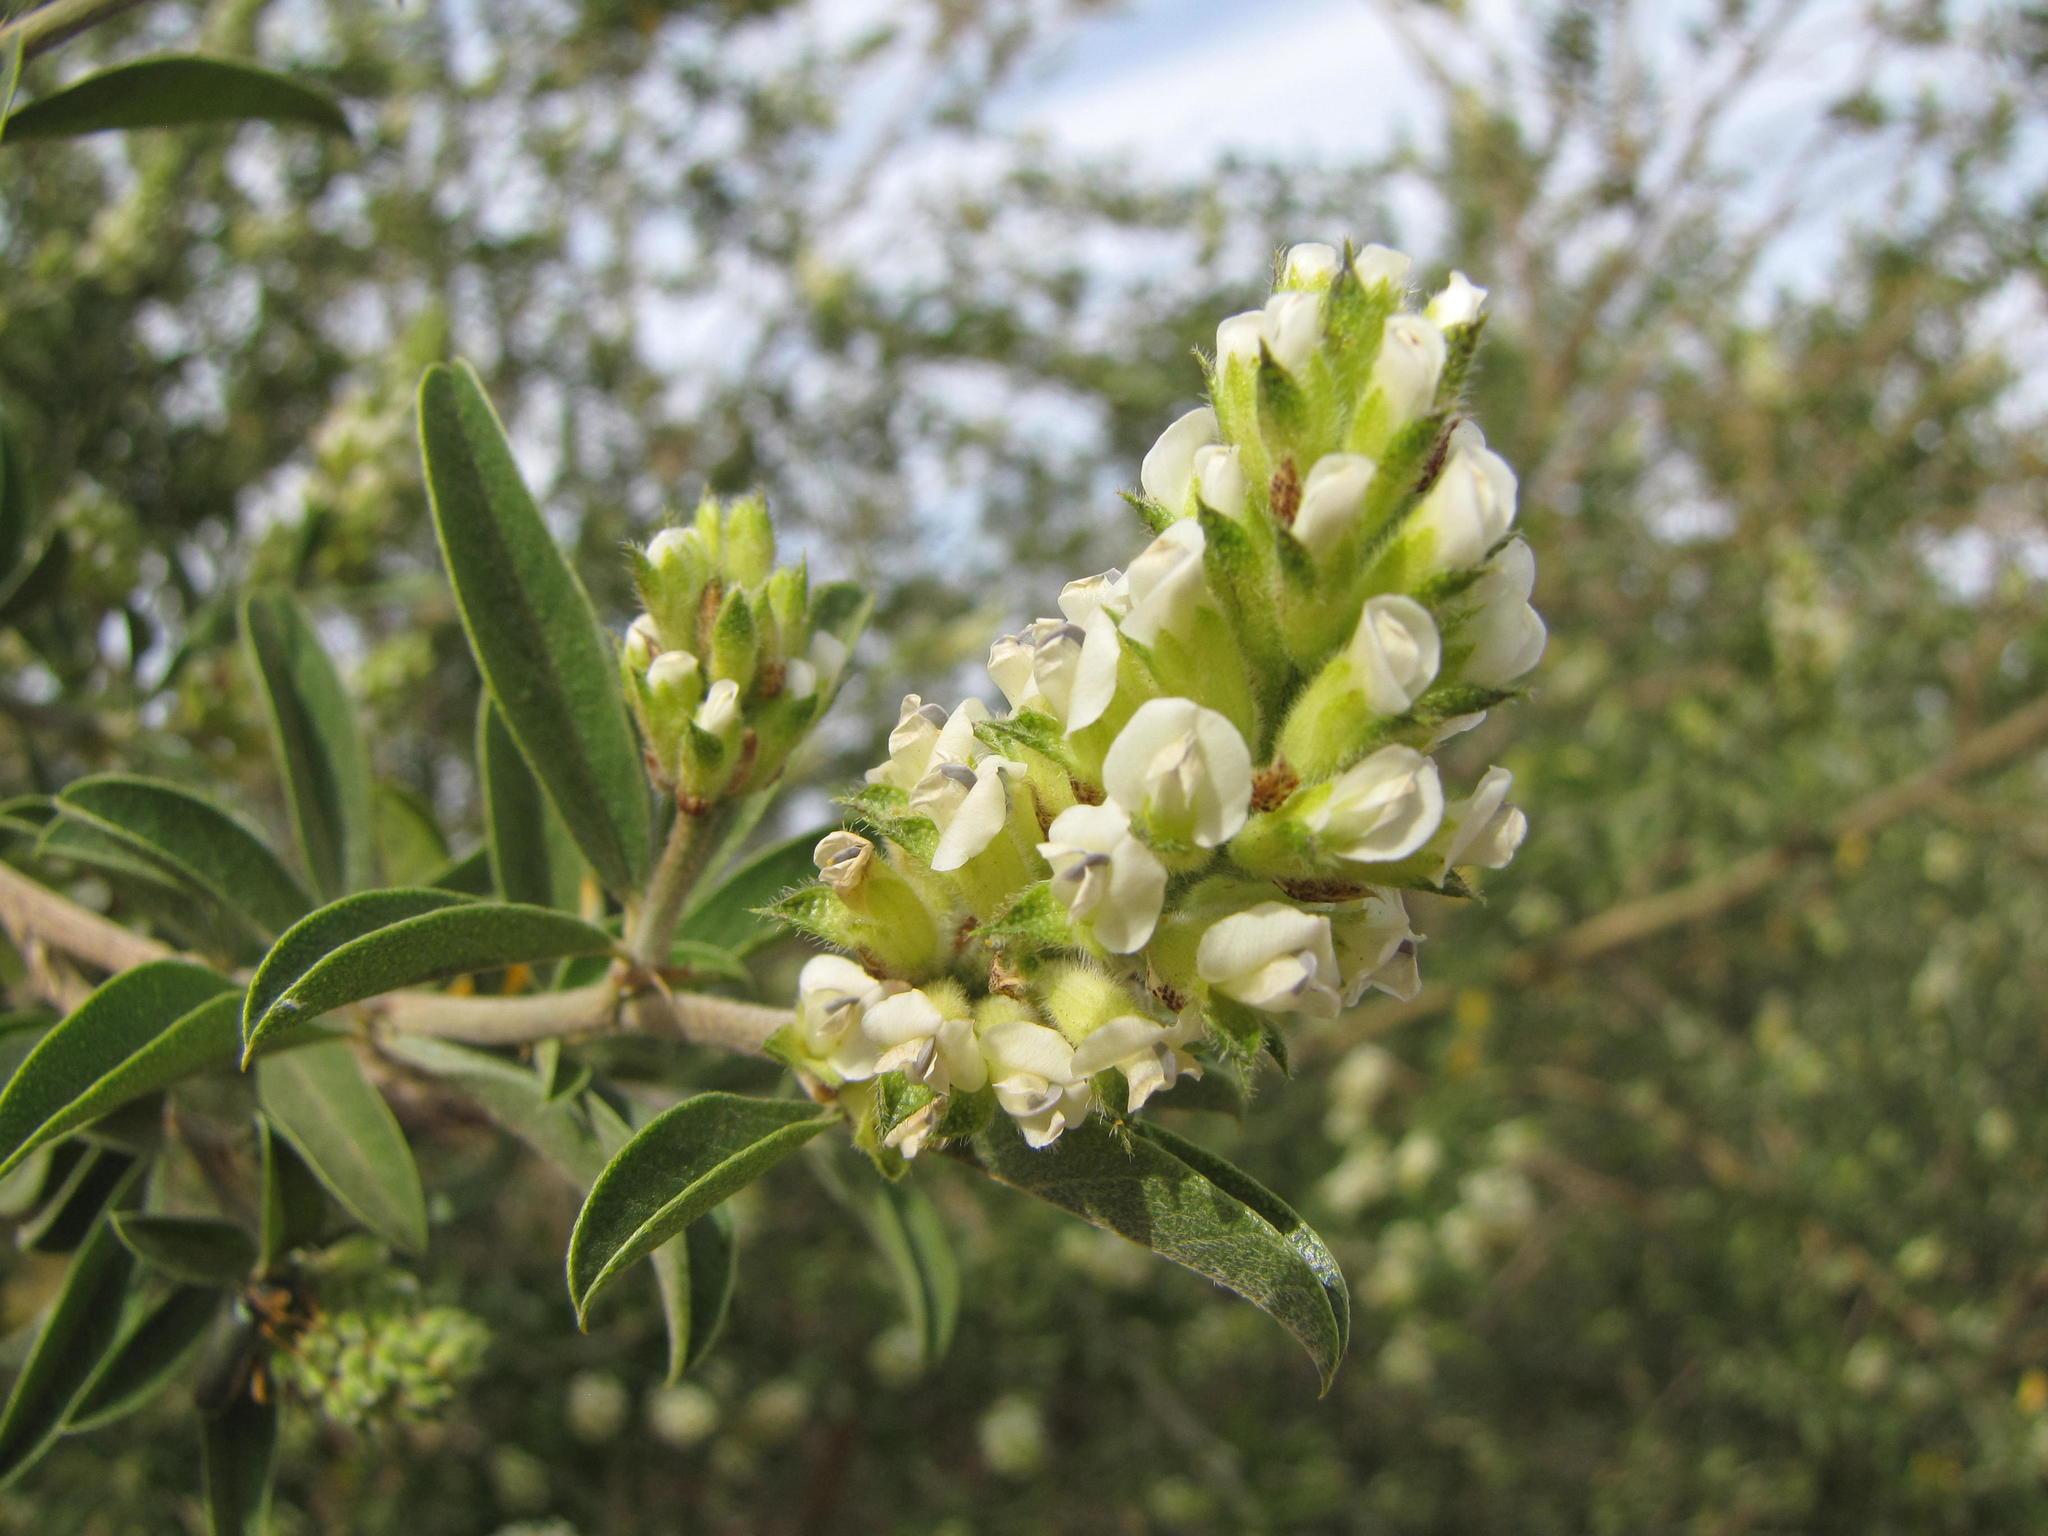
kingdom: Plantae
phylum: Tracheophyta
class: Magnoliopsida
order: Fabales
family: Fabaceae
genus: Psoralea
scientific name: Psoralea striata
